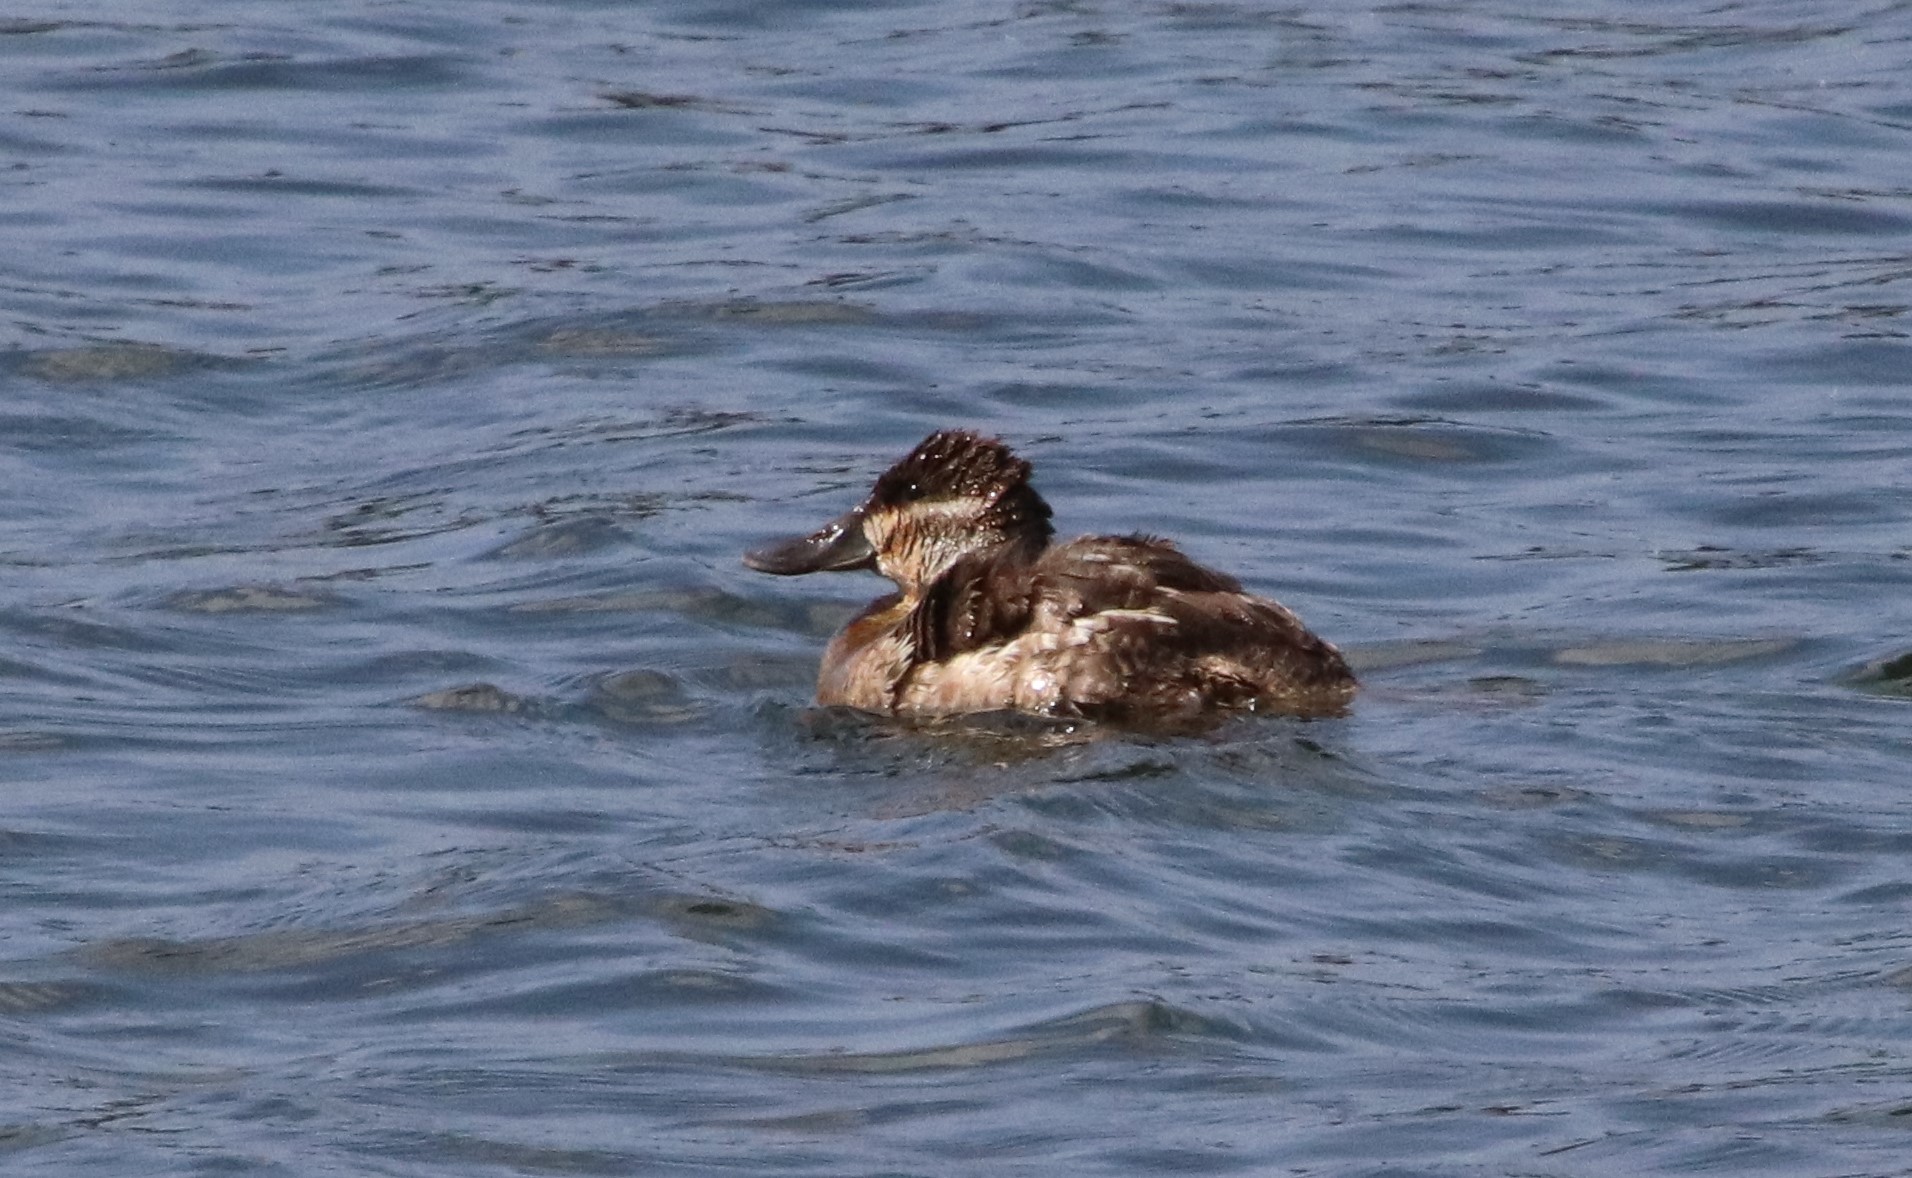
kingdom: Animalia
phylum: Chordata
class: Aves
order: Anseriformes
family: Anatidae
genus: Oxyura
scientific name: Oxyura jamaicensis
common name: Ruddy duck
